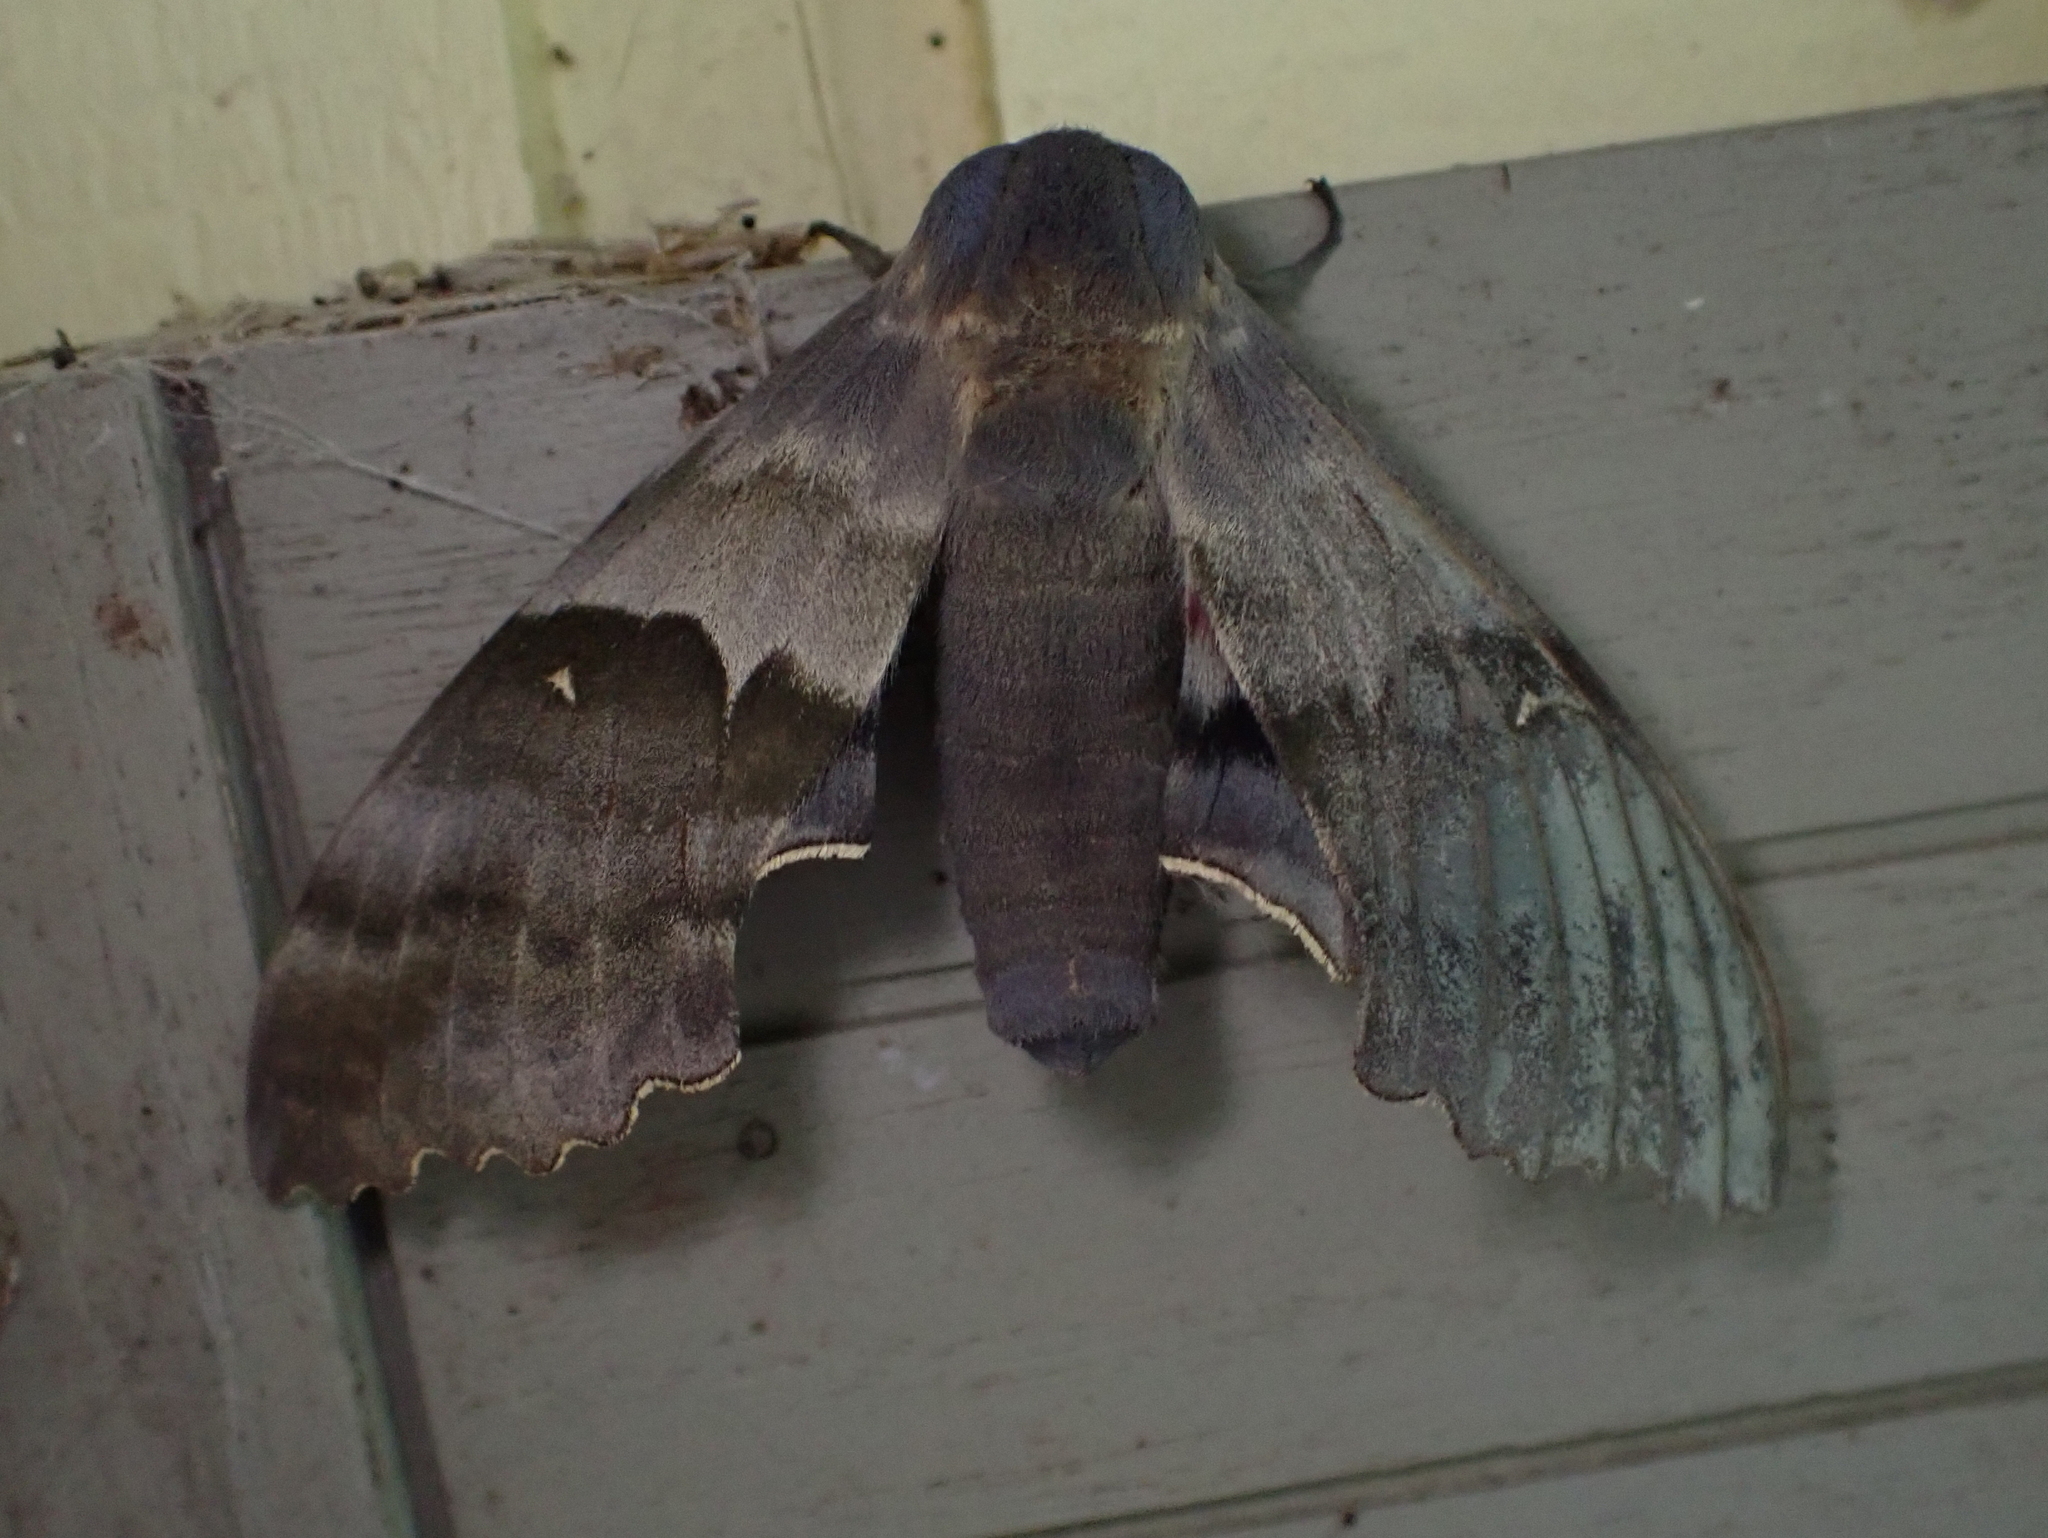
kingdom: Animalia
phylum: Arthropoda
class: Insecta
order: Lepidoptera
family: Sphingidae
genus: Pachysphinx
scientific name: Pachysphinx modesta
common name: Big poplar sphinx
